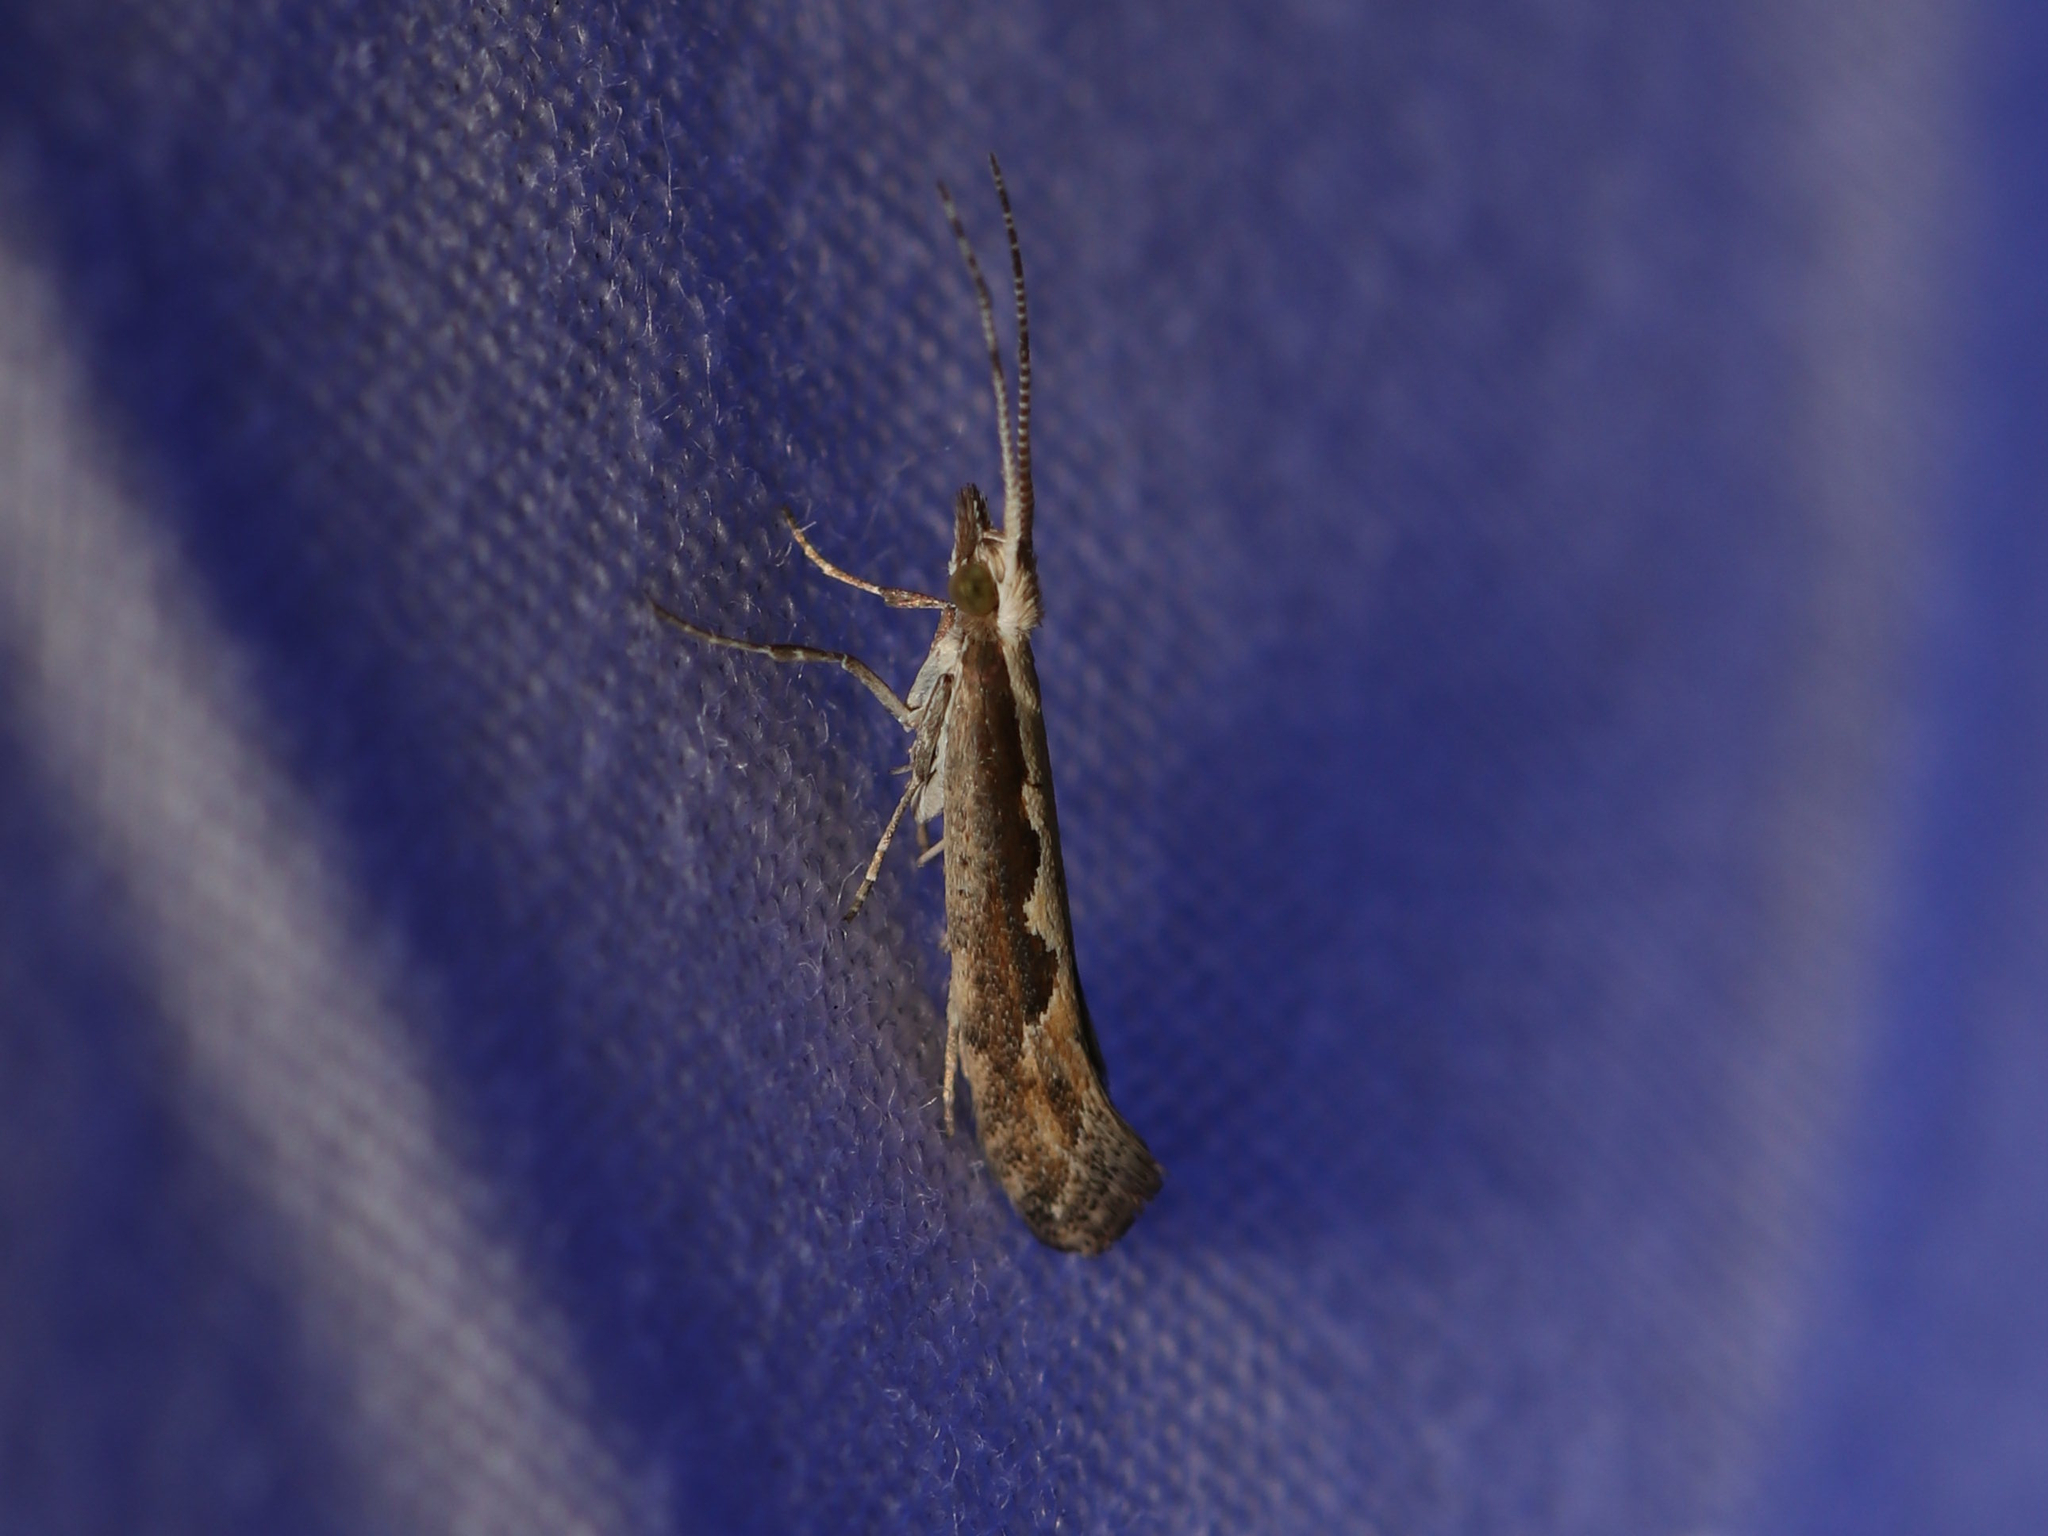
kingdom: Animalia
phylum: Arthropoda
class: Insecta
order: Lepidoptera
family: Plutellidae
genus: Plutella
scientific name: Plutella xylostella
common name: Diamond-back moth
